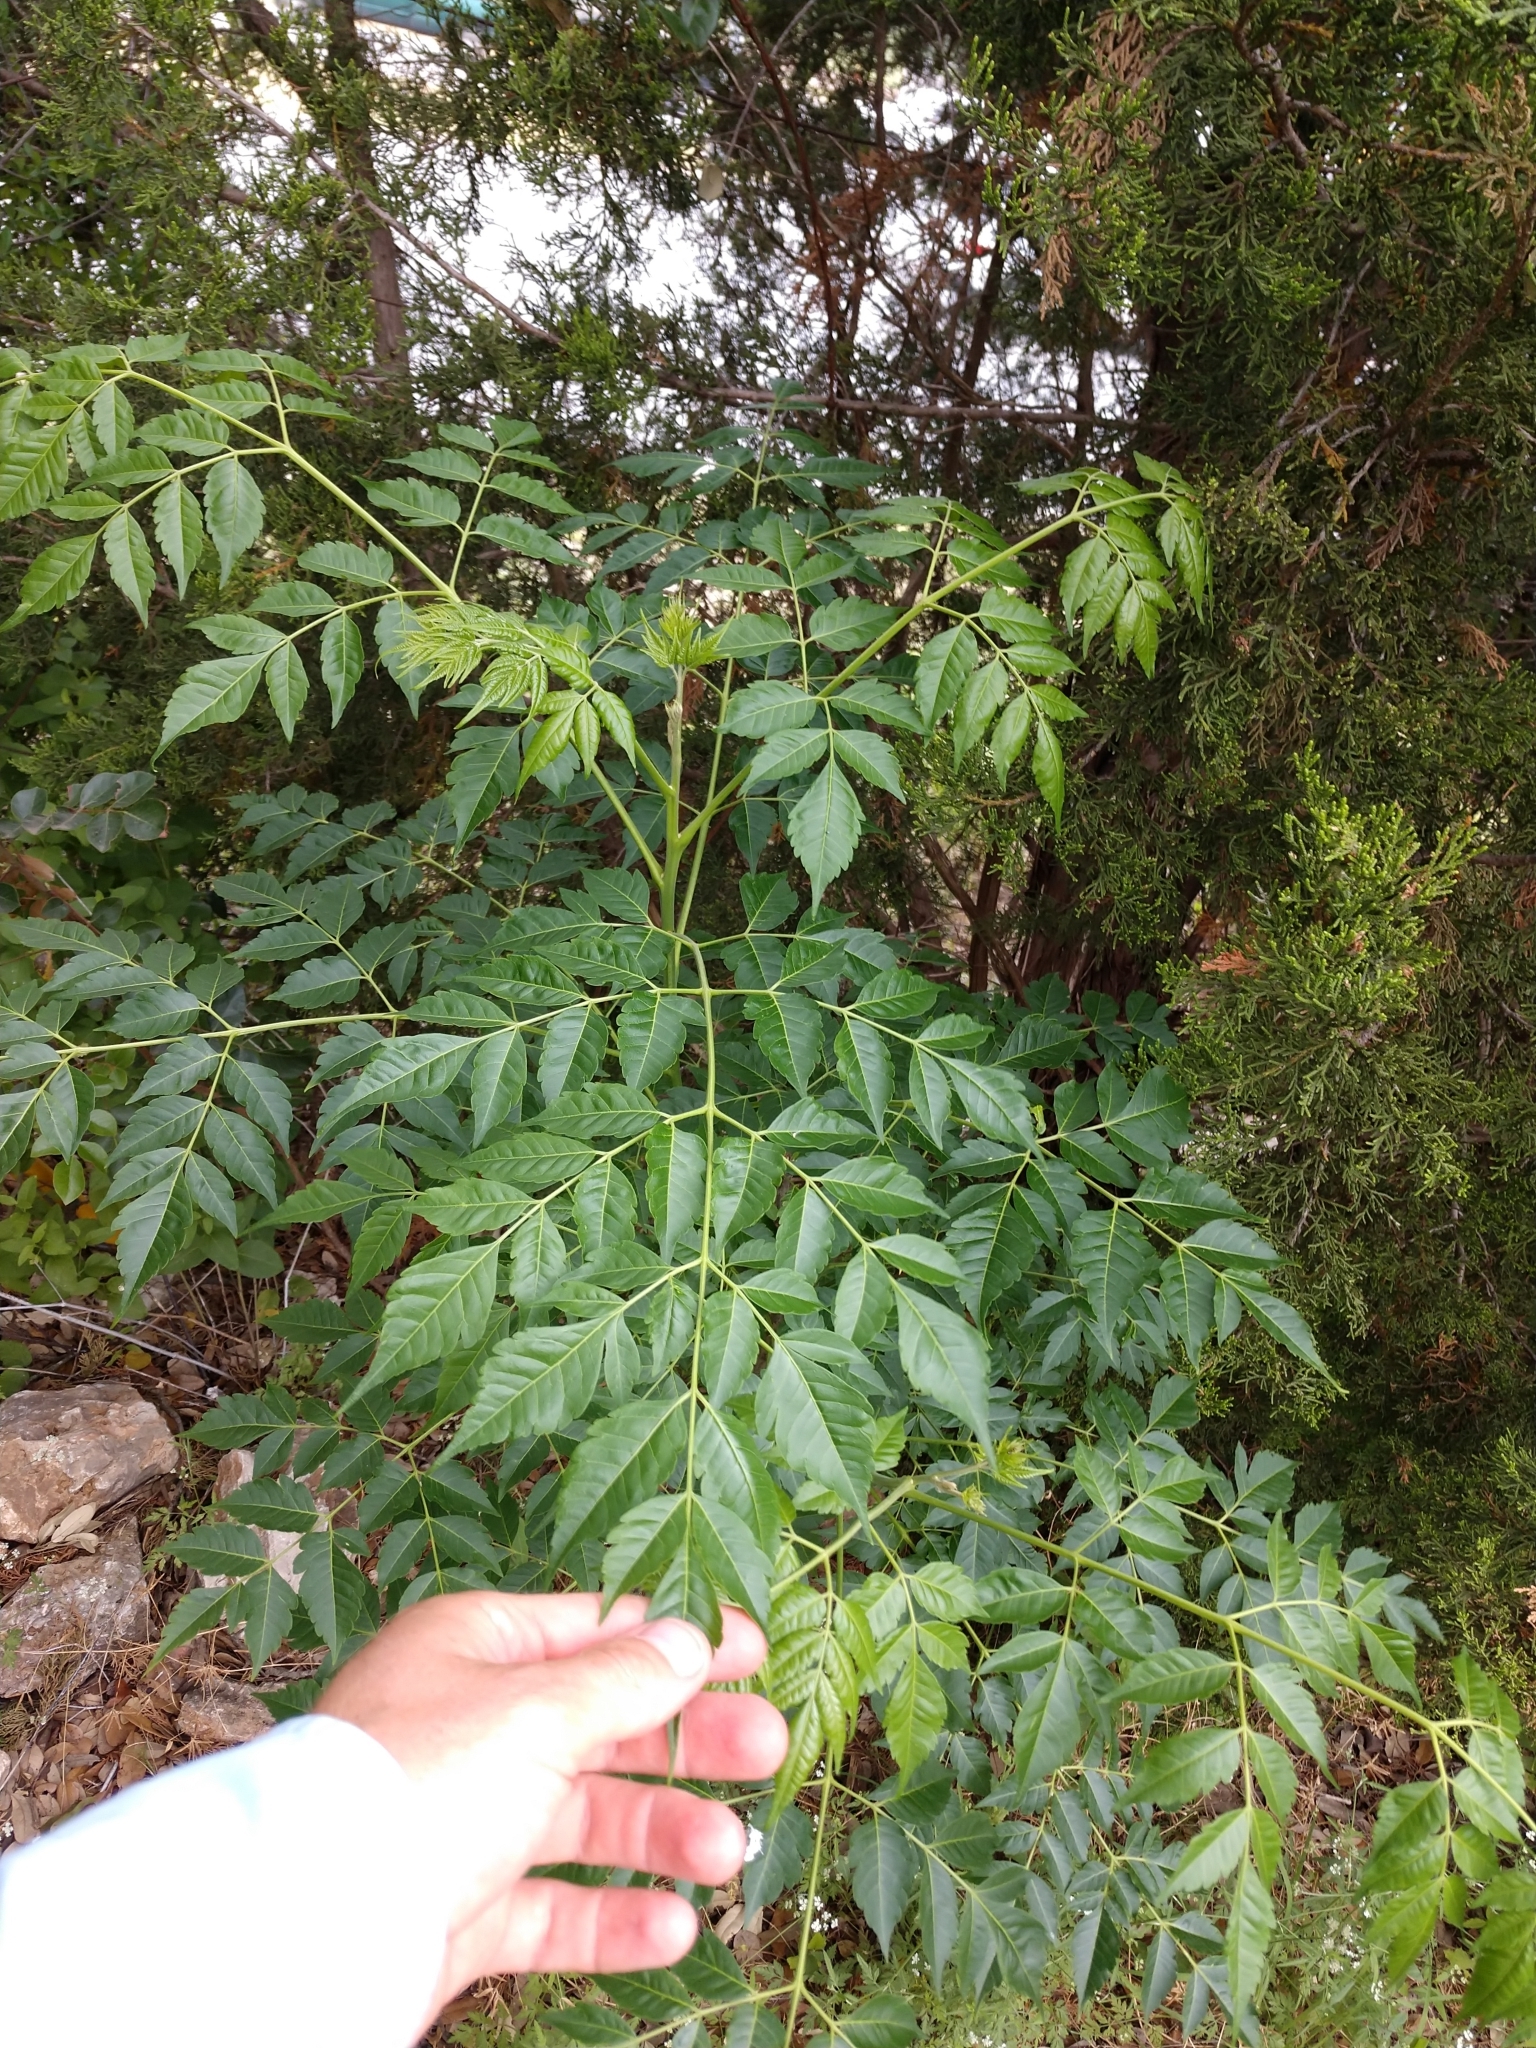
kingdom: Plantae
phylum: Tracheophyta
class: Magnoliopsida
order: Sapindales
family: Meliaceae
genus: Melia
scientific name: Melia azedarach
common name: Chinaberrytree
